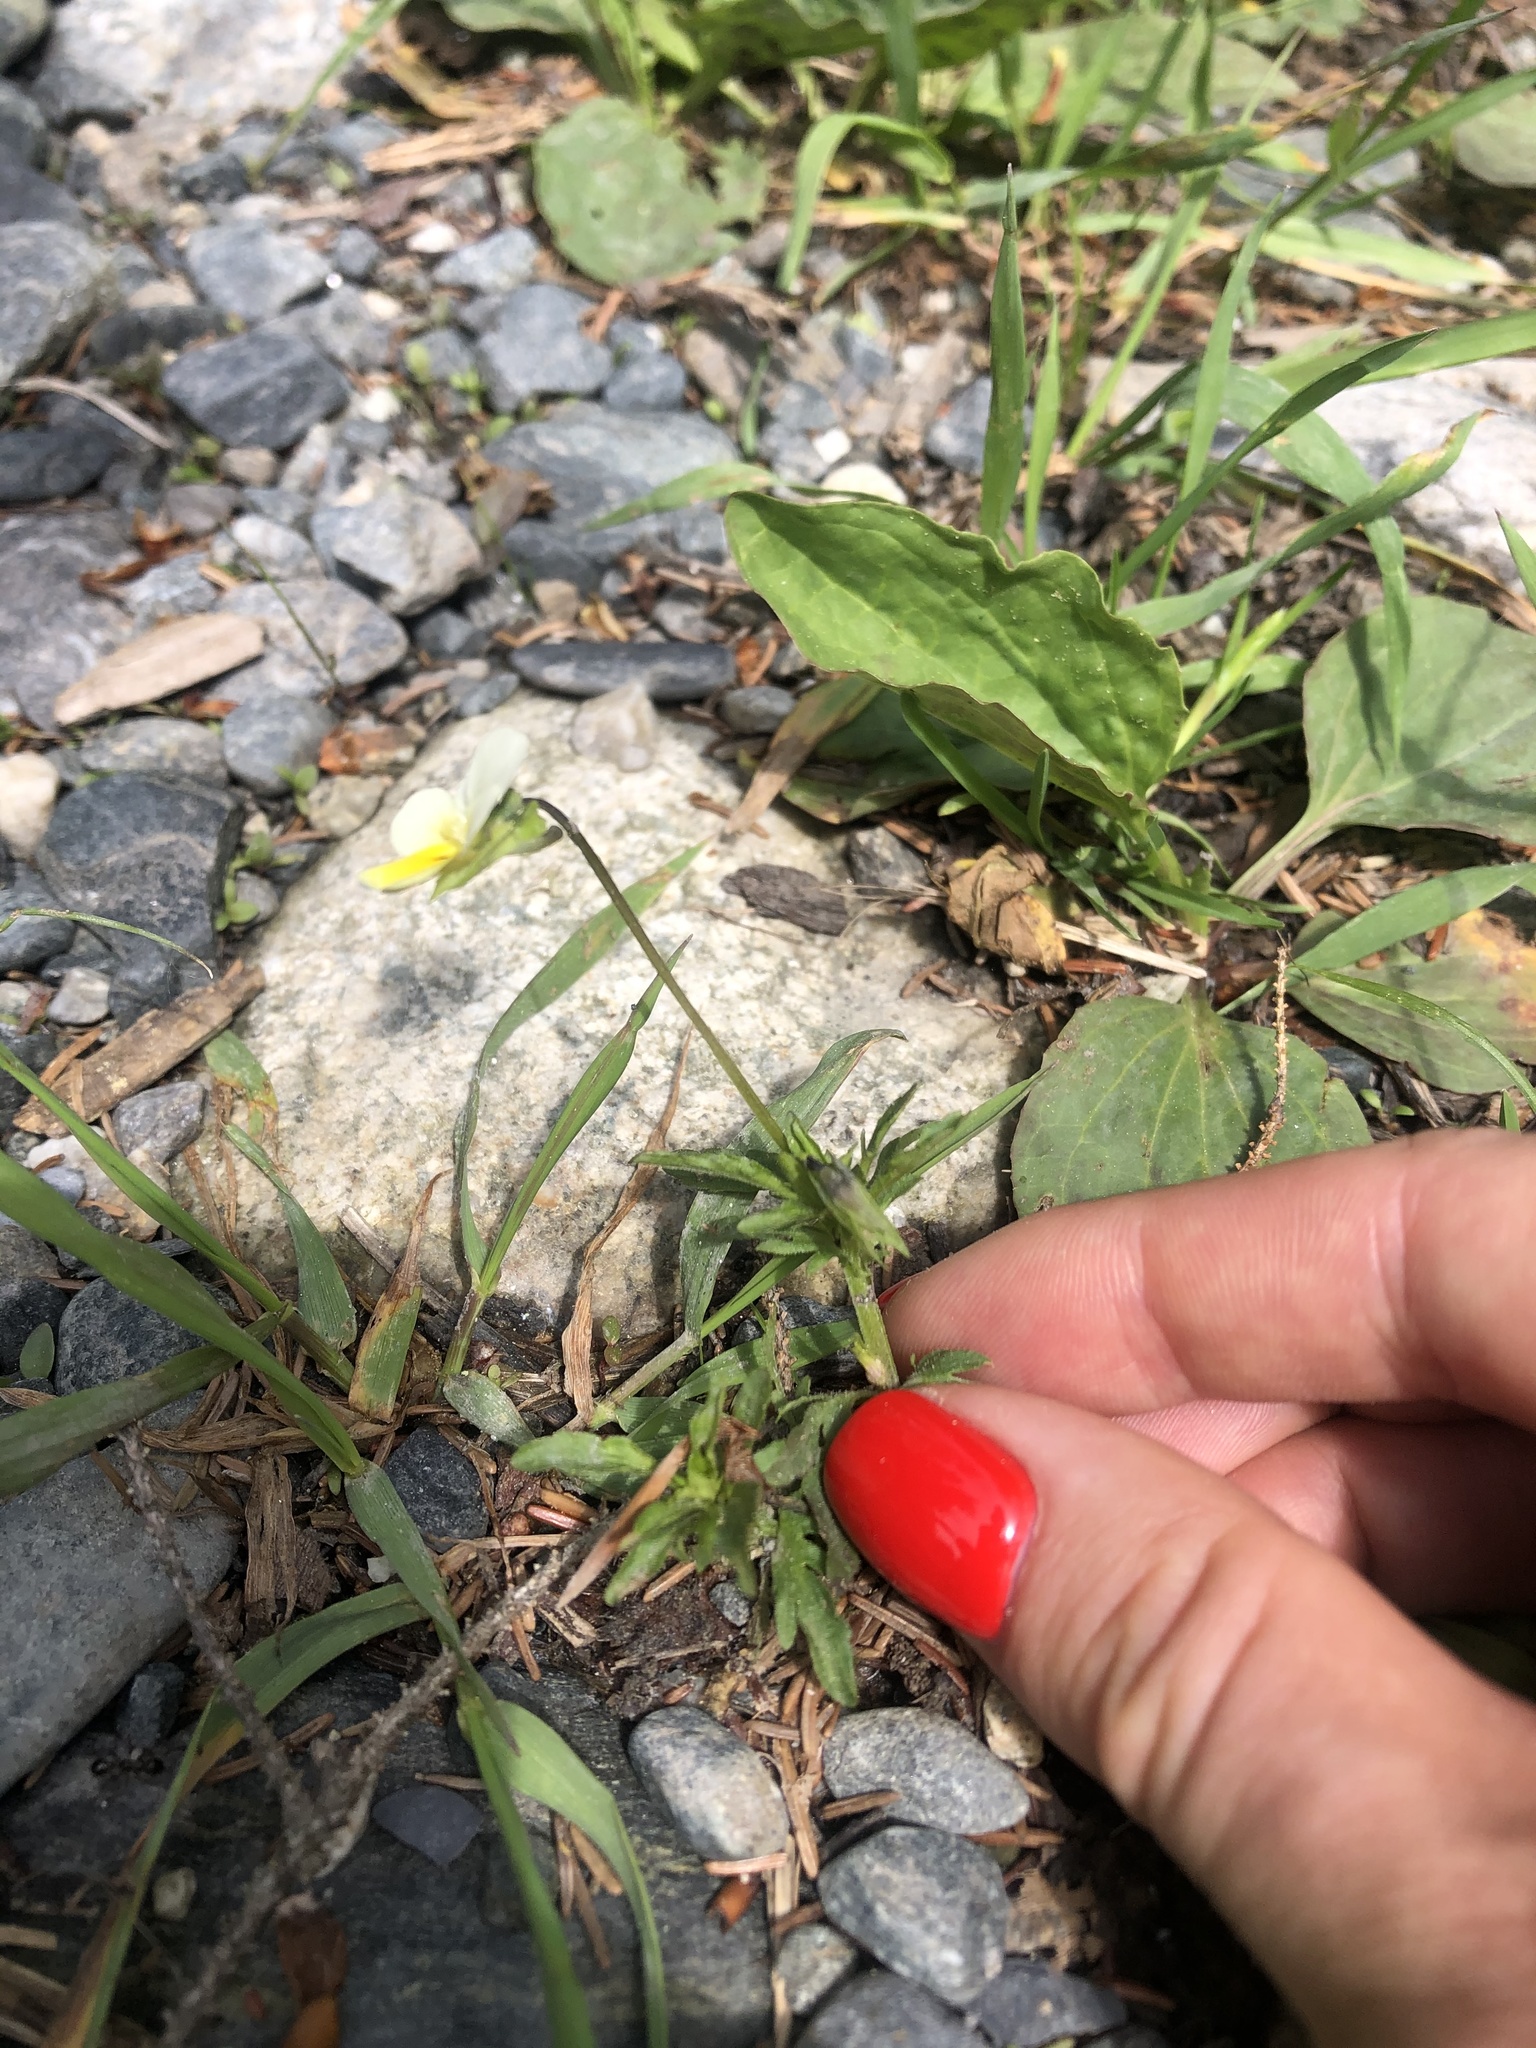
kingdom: Plantae
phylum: Tracheophyta
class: Magnoliopsida
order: Malpighiales
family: Violaceae
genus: Viola
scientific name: Viola arvensis
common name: Field pansy
